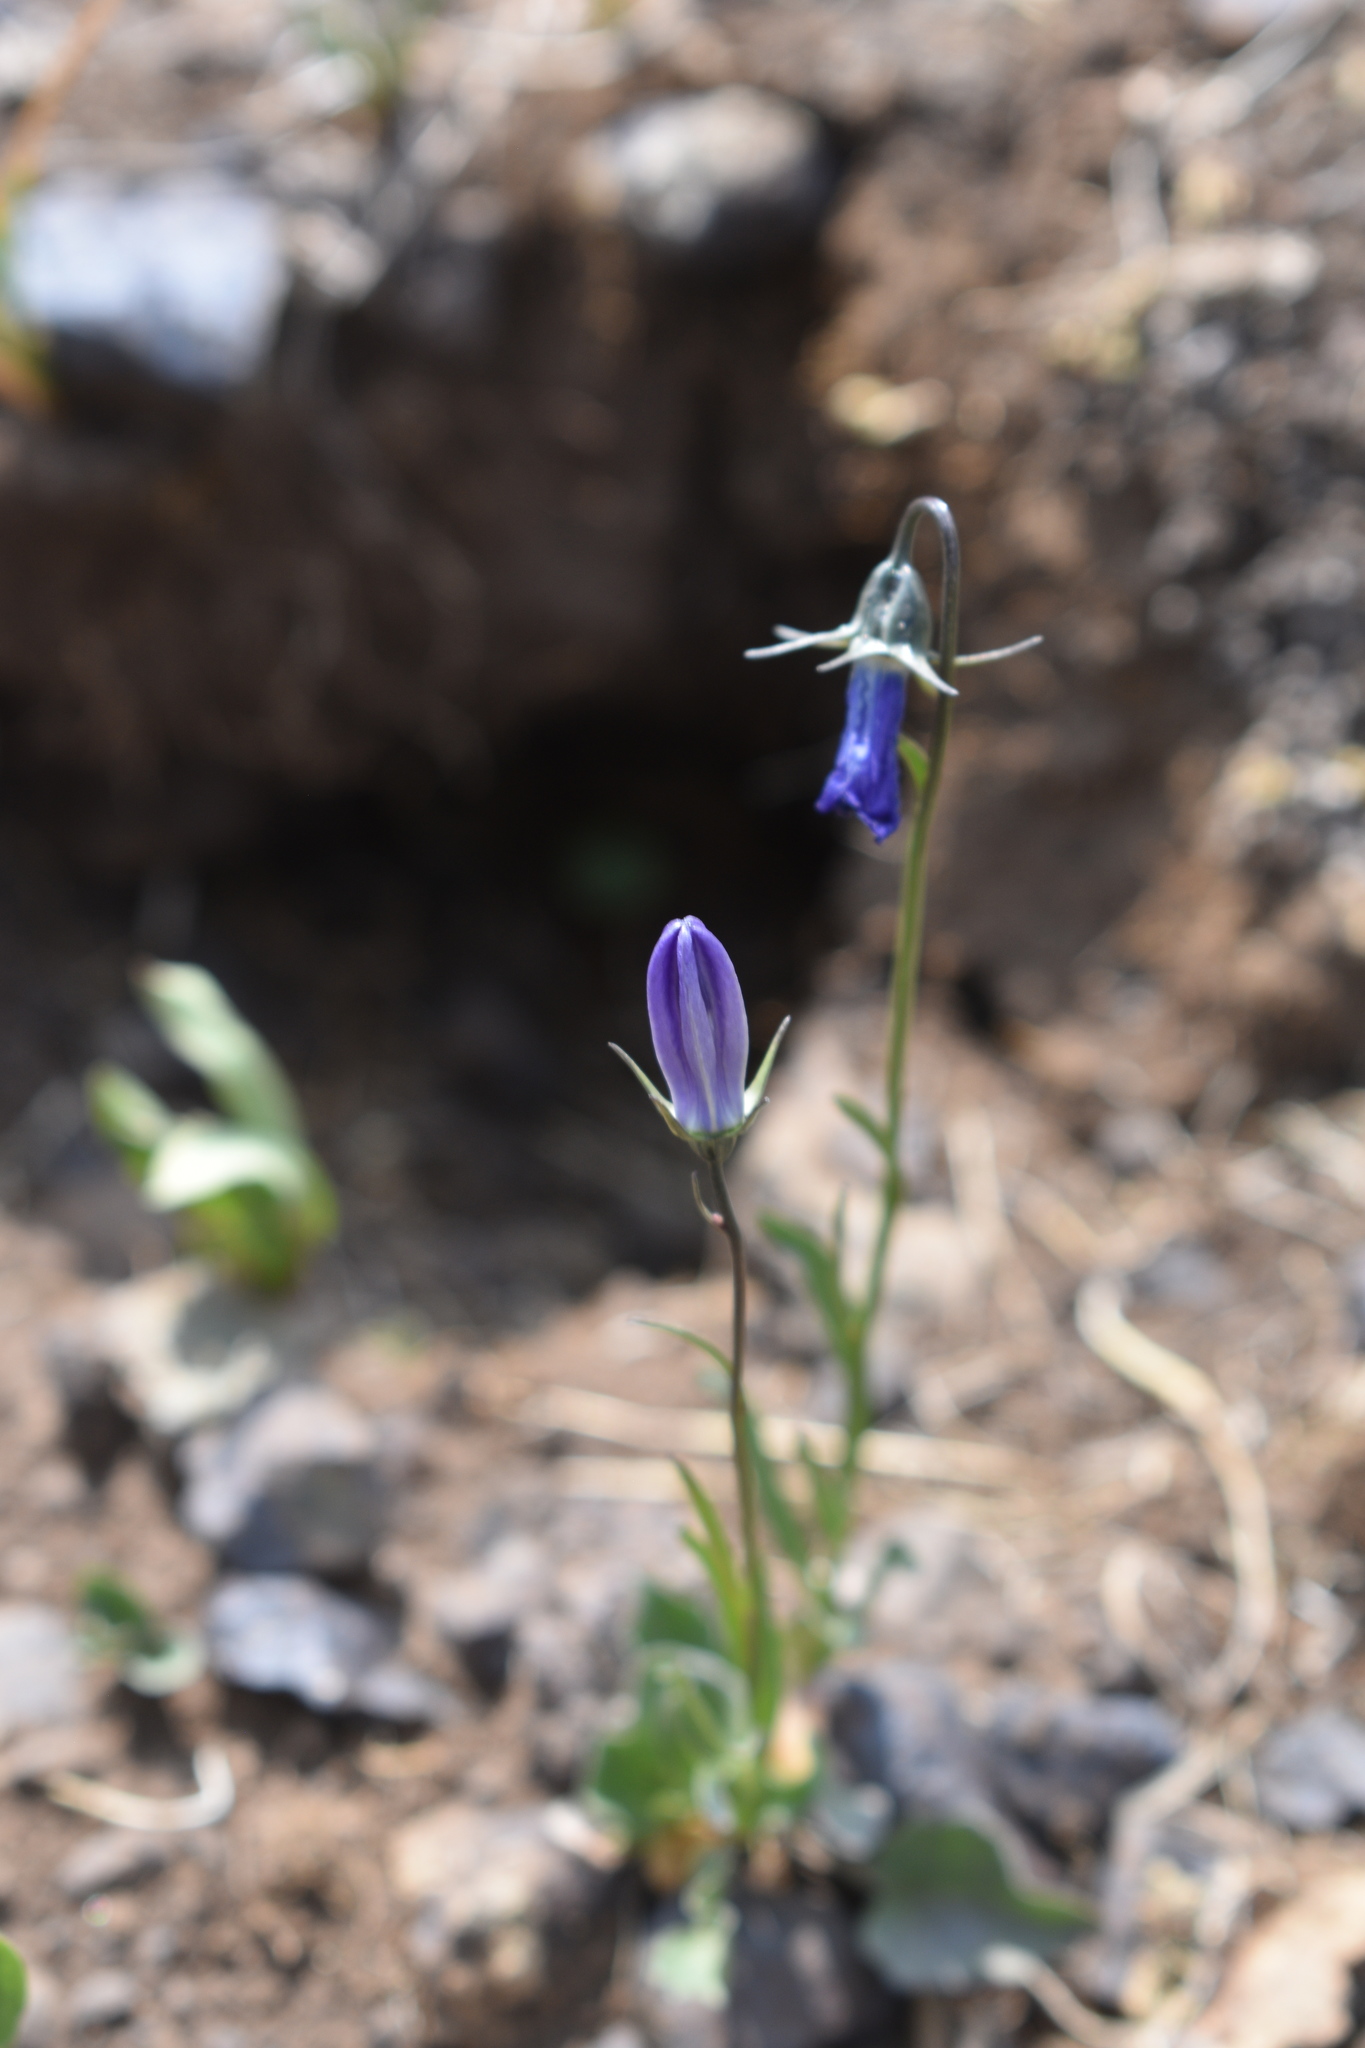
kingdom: Plantae
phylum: Tracheophyta
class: Magnoliopsida
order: Asterales
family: Campanulaceae
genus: Campanula
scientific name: Campanula petiolata
